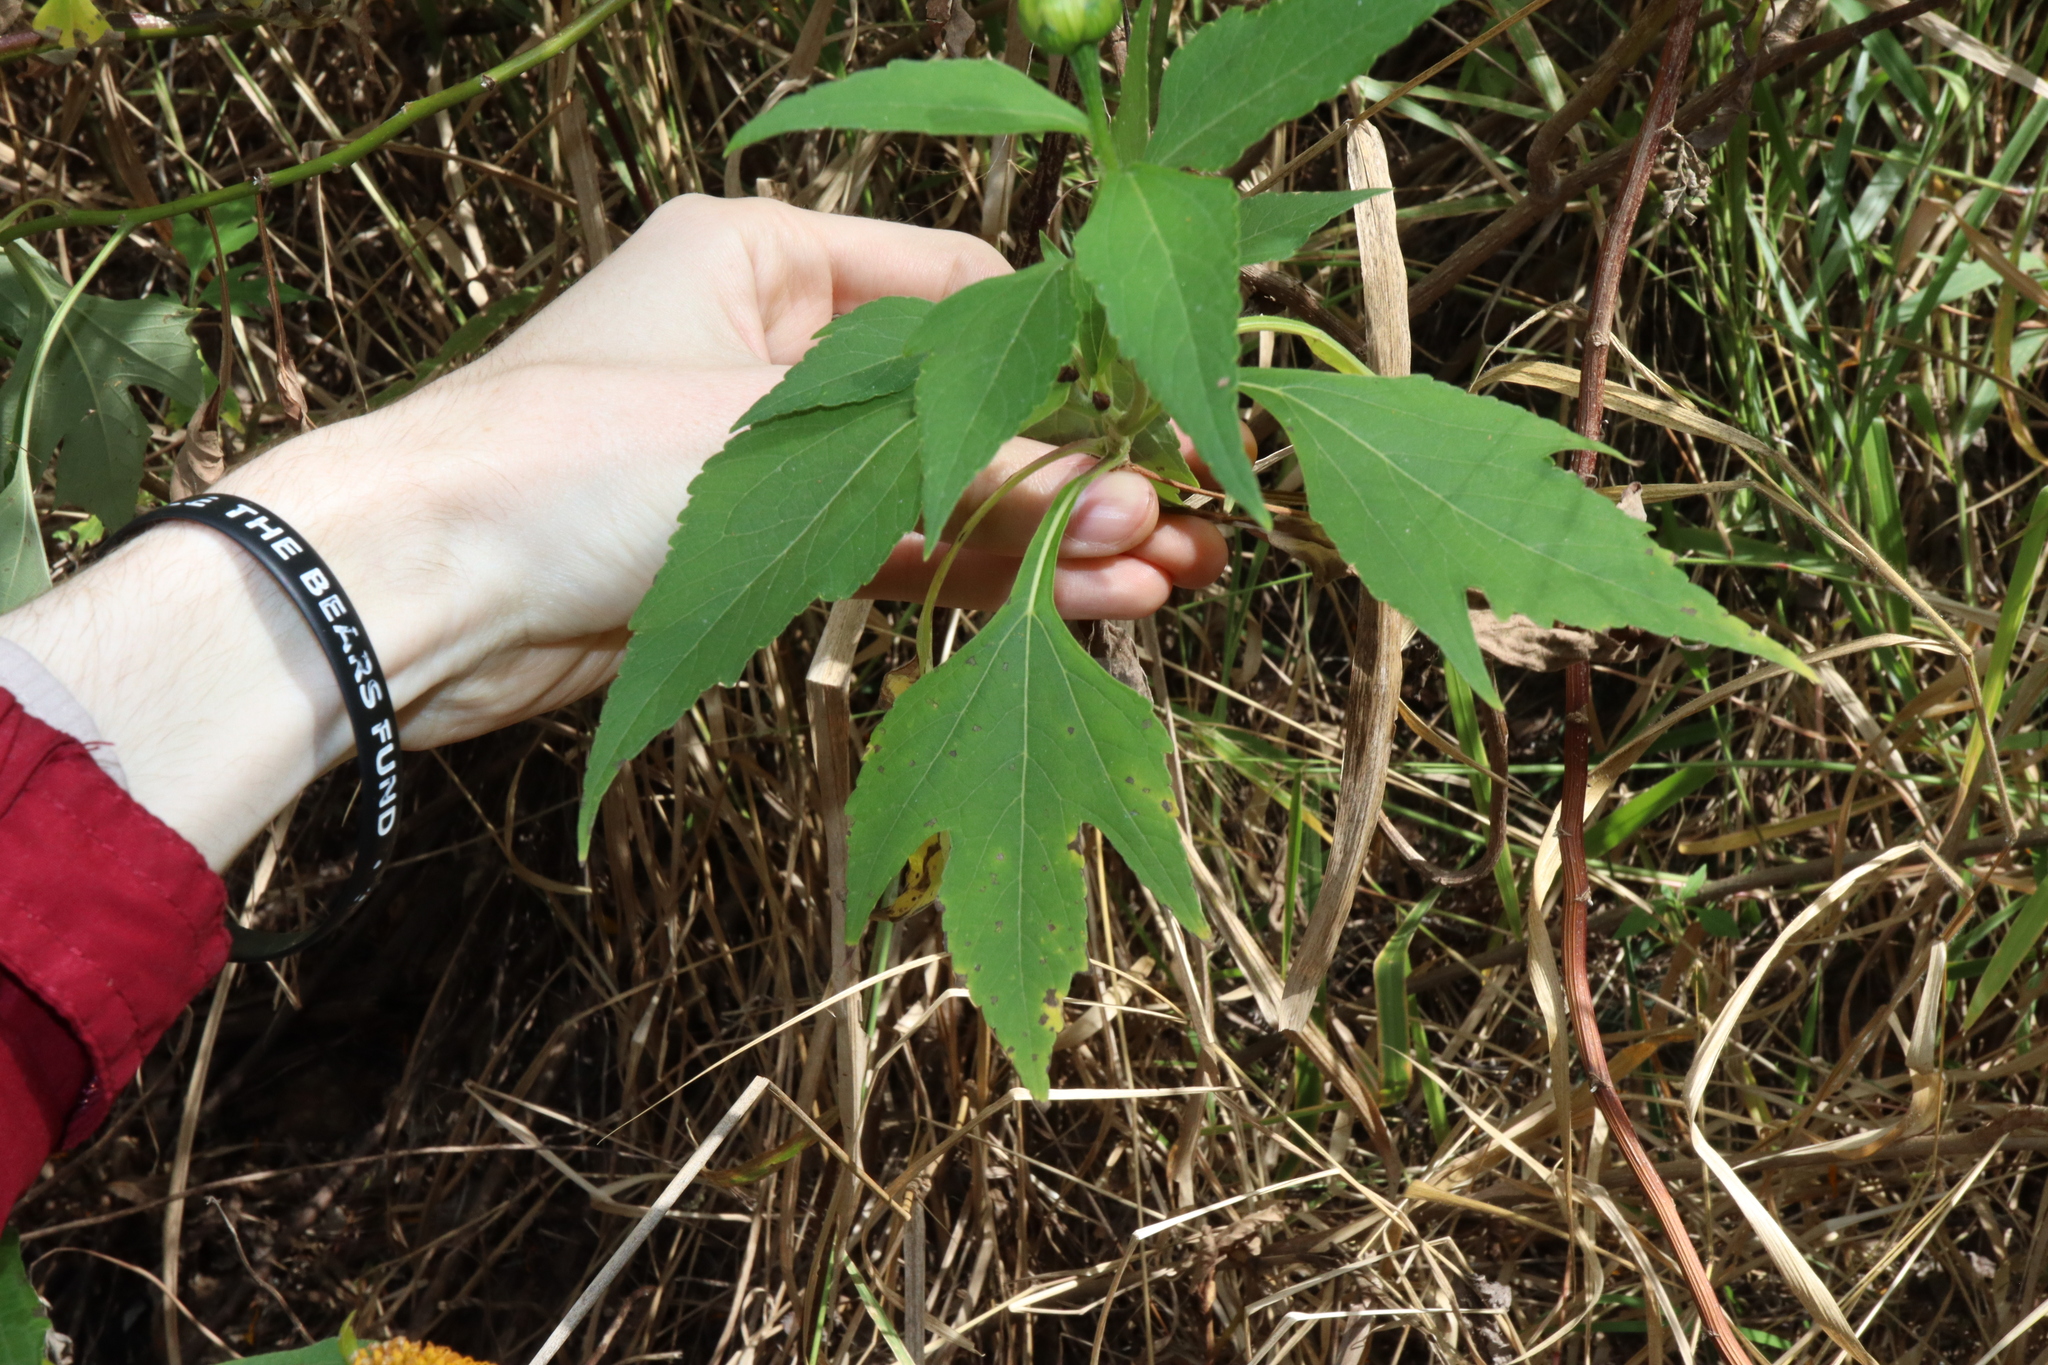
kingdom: Plantae
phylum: Tracheophyta
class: Magnoliopsida
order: Asterales
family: Asteraceae
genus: Tithonia
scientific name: Tithonia diversifolia
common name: Tree marigold
